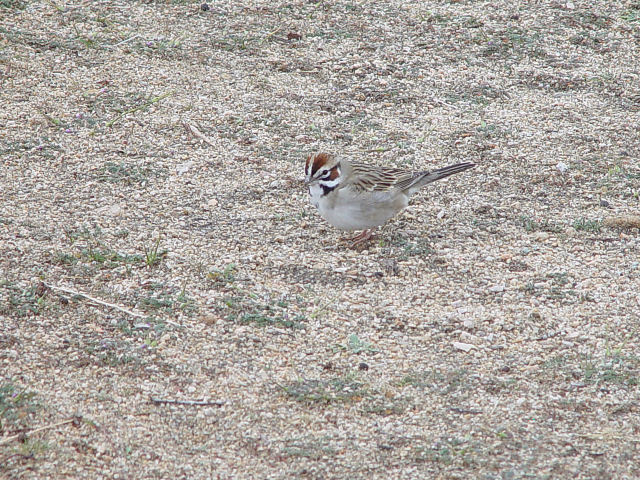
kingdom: Animalia
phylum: Chordata
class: Aves
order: Passeriformes
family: Passerellidae
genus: Chondestes
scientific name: Chondestes grammacus
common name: Lark sparrow
